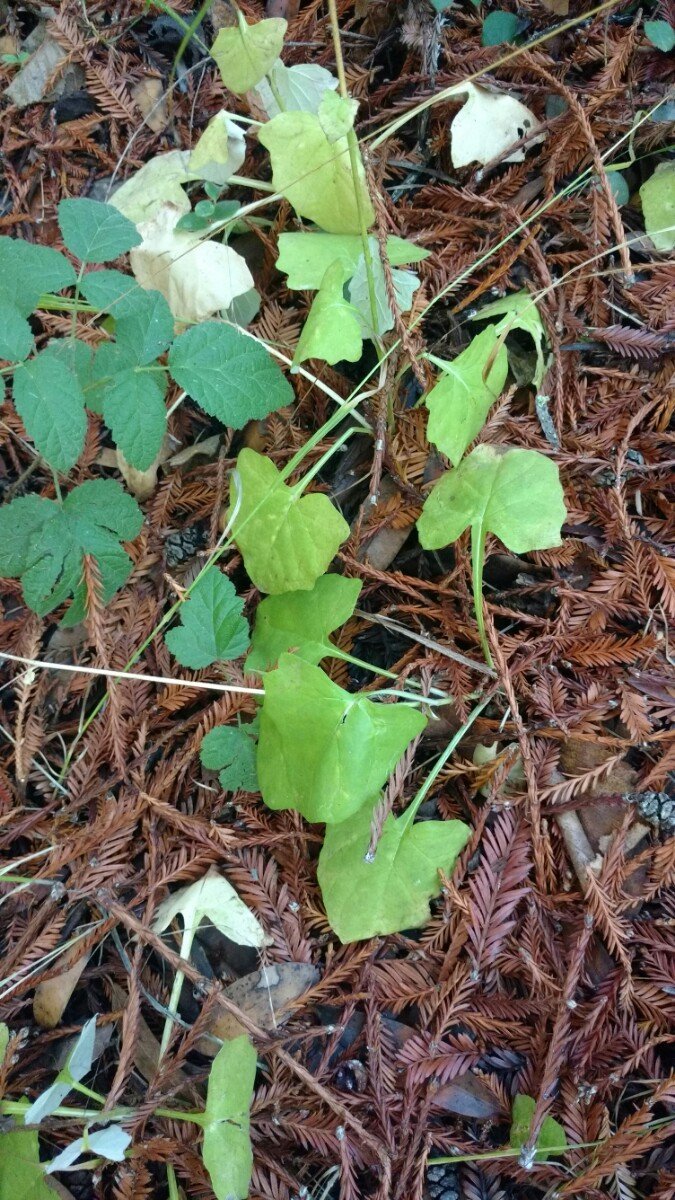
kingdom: Plantae
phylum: Tracheophyta
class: Magnoliopsida
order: Asterales
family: Asteraceae
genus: Adenocaulon
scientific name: Adenocaulon bicolor
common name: Trailplant
